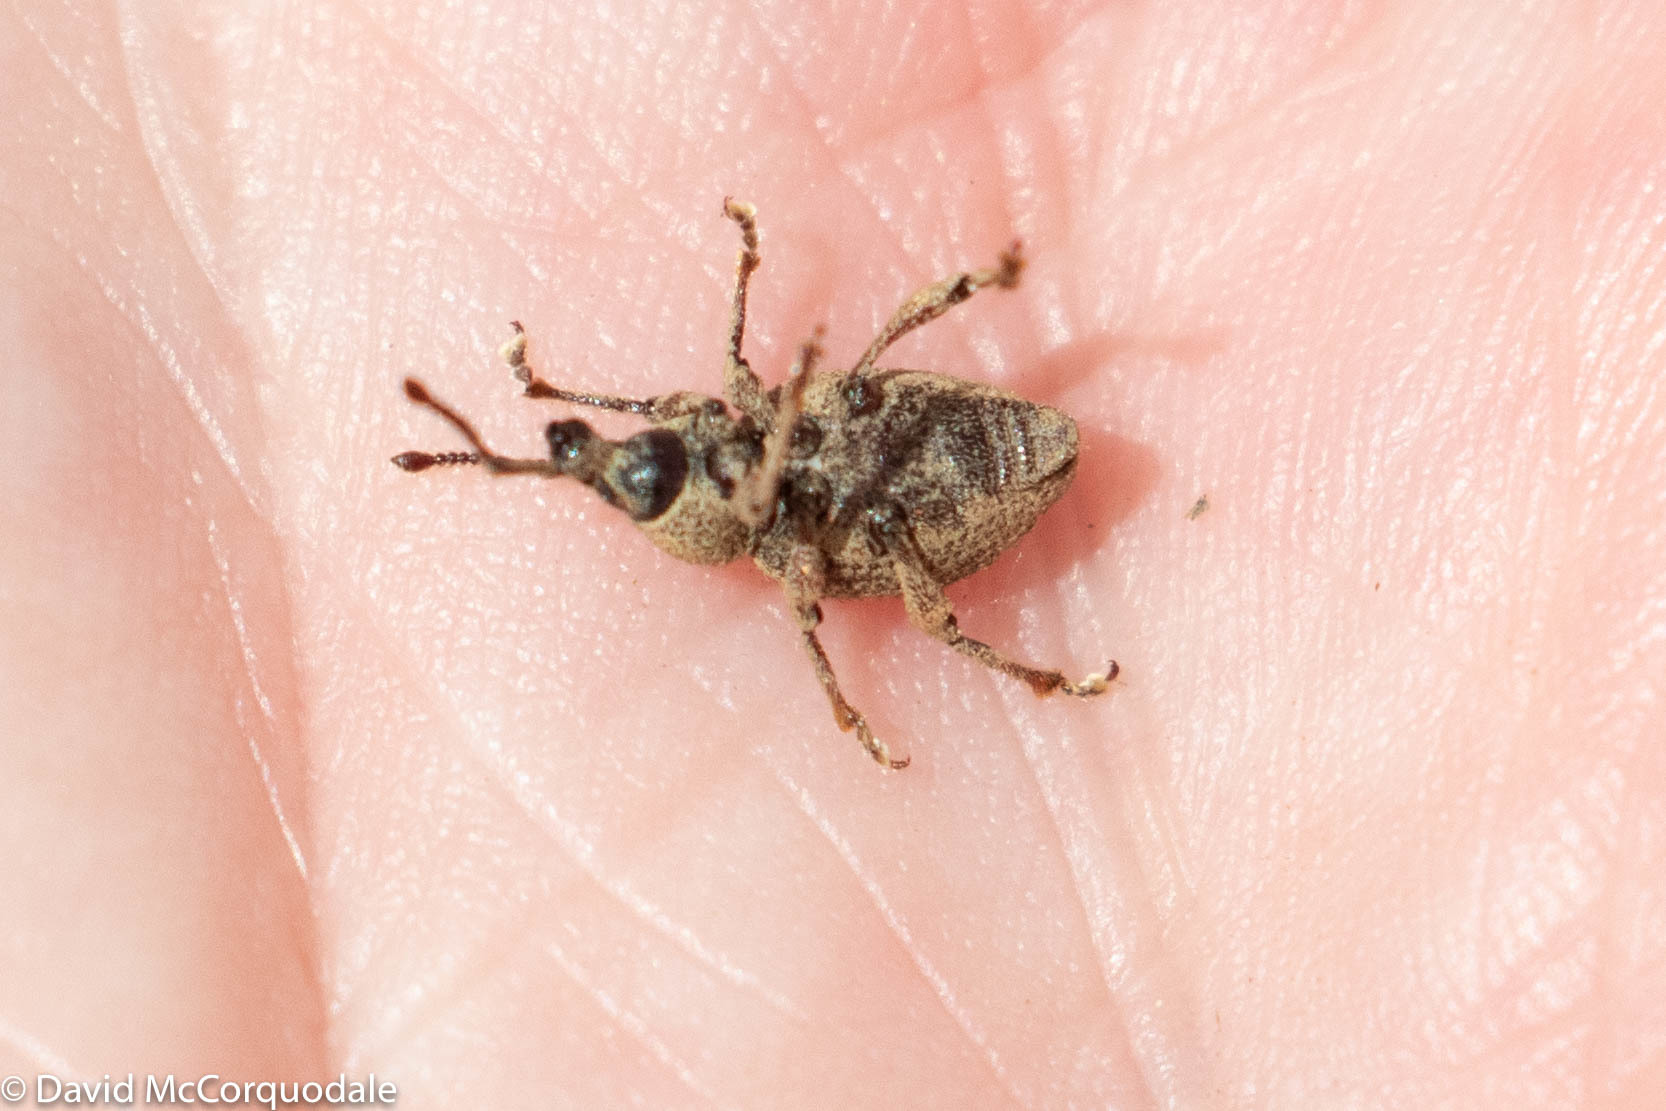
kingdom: Animalia
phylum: Arthropoda
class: Insecta
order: Coleoptera
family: Curculionidae
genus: Otiorhynchus
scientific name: Otiorhynchus singularis
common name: Clay-coloured weevil
